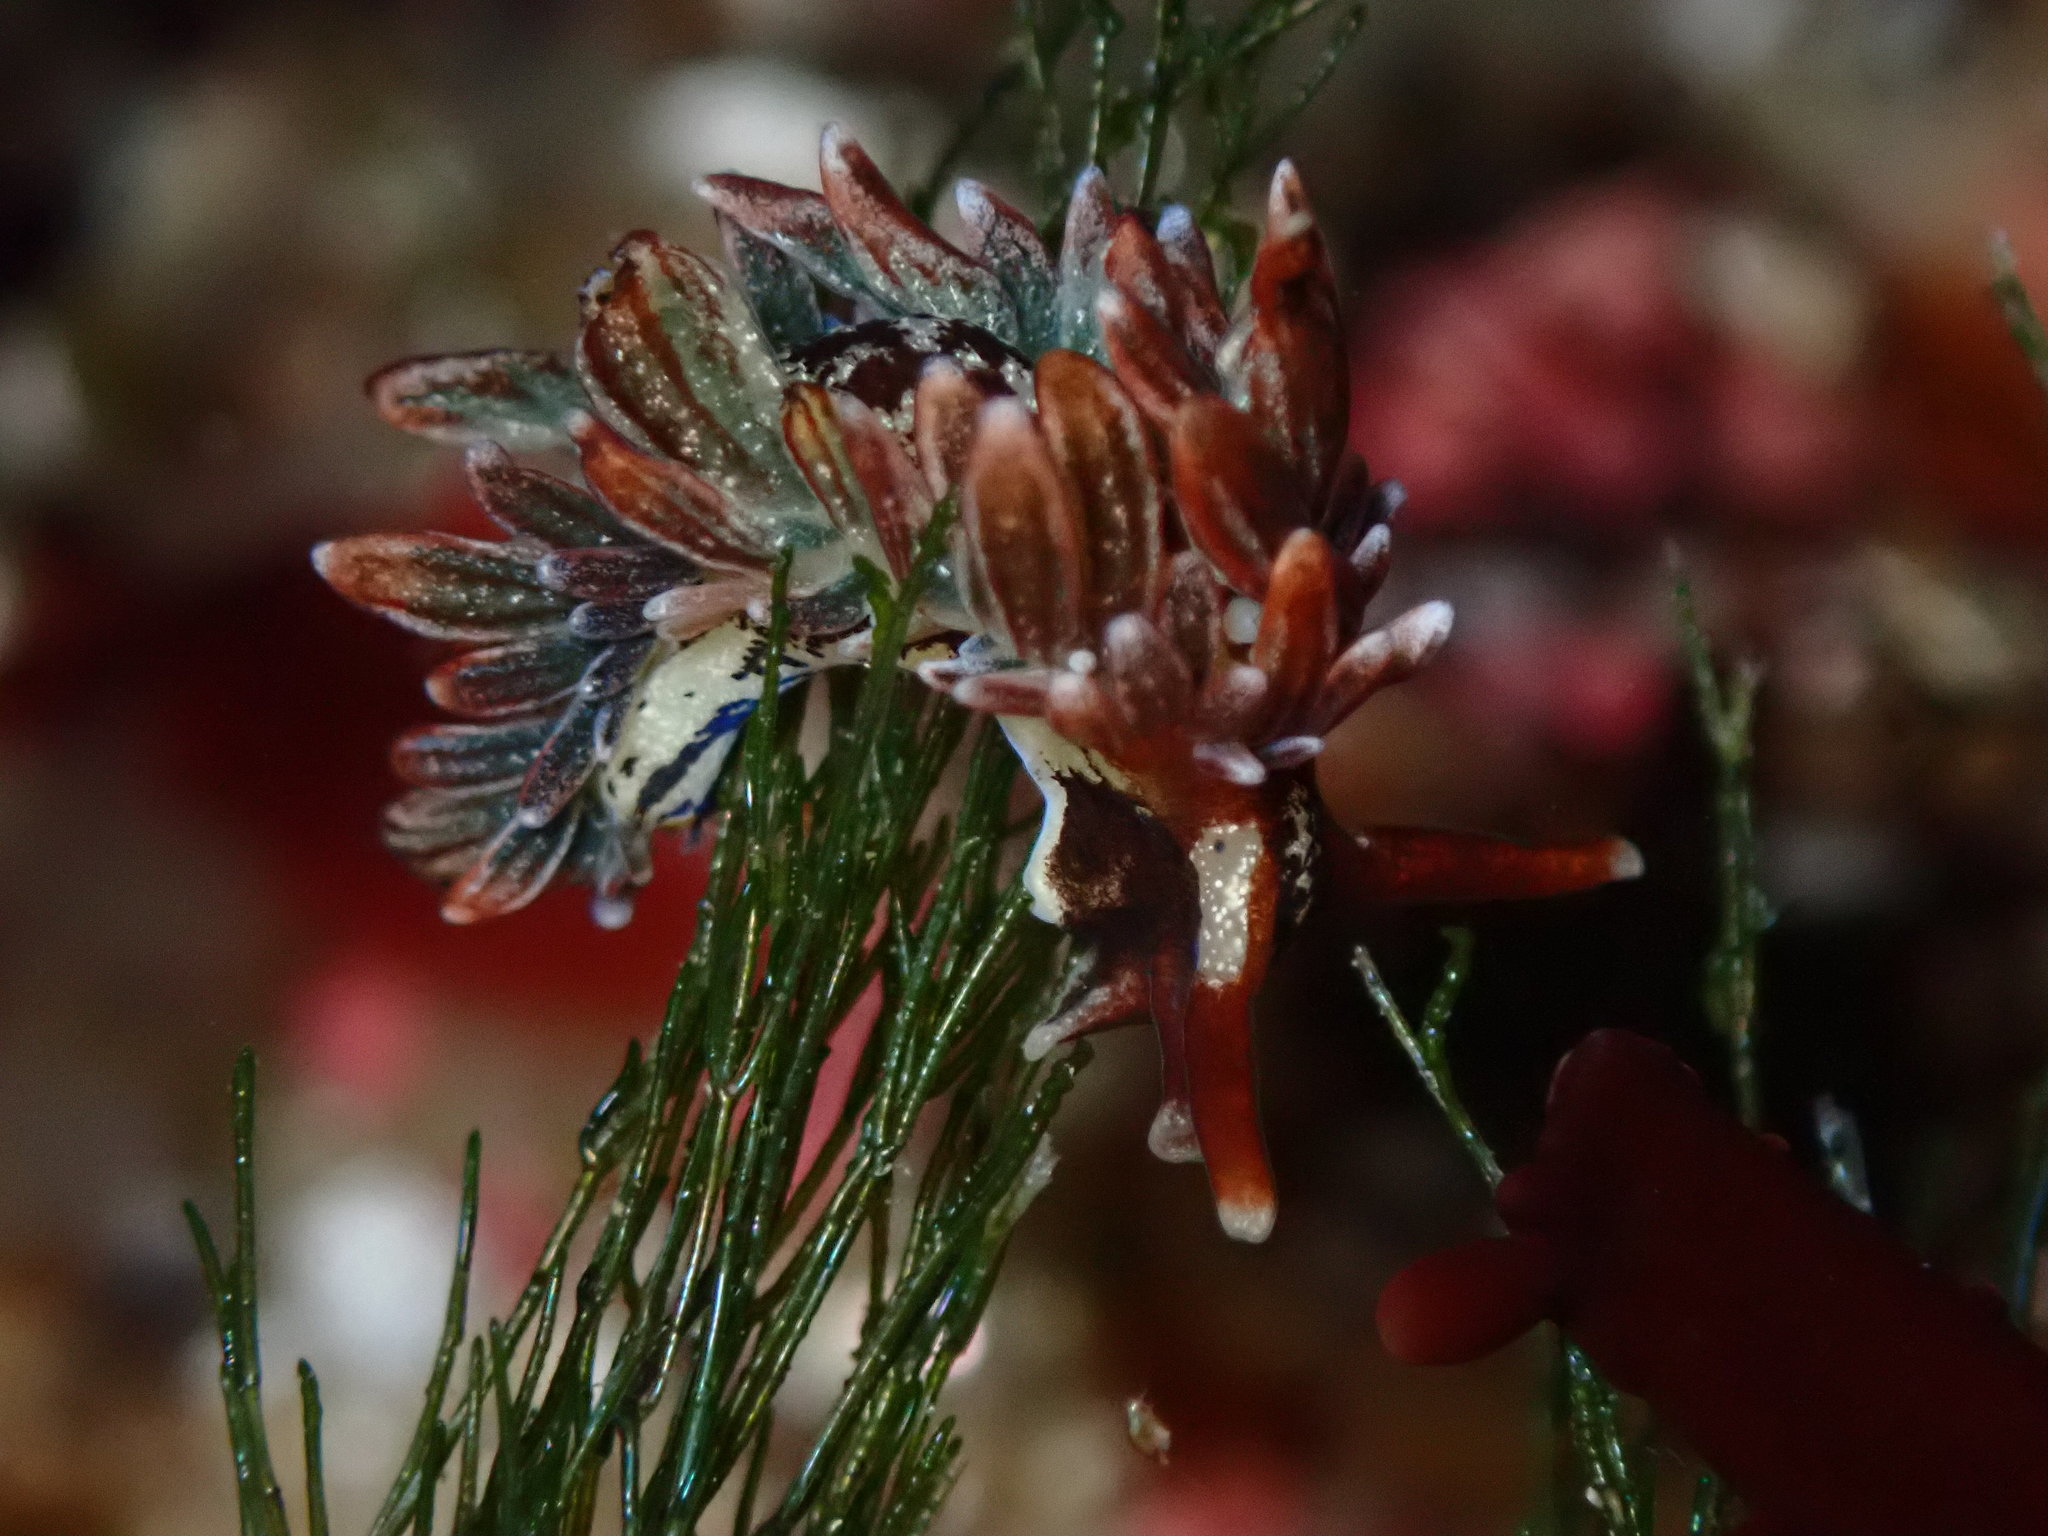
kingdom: Animalia
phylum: Mollusca
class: Gastropoda
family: Hermaeidae
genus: Aplysiopsis
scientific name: Aplysiopsis enteromorphae
